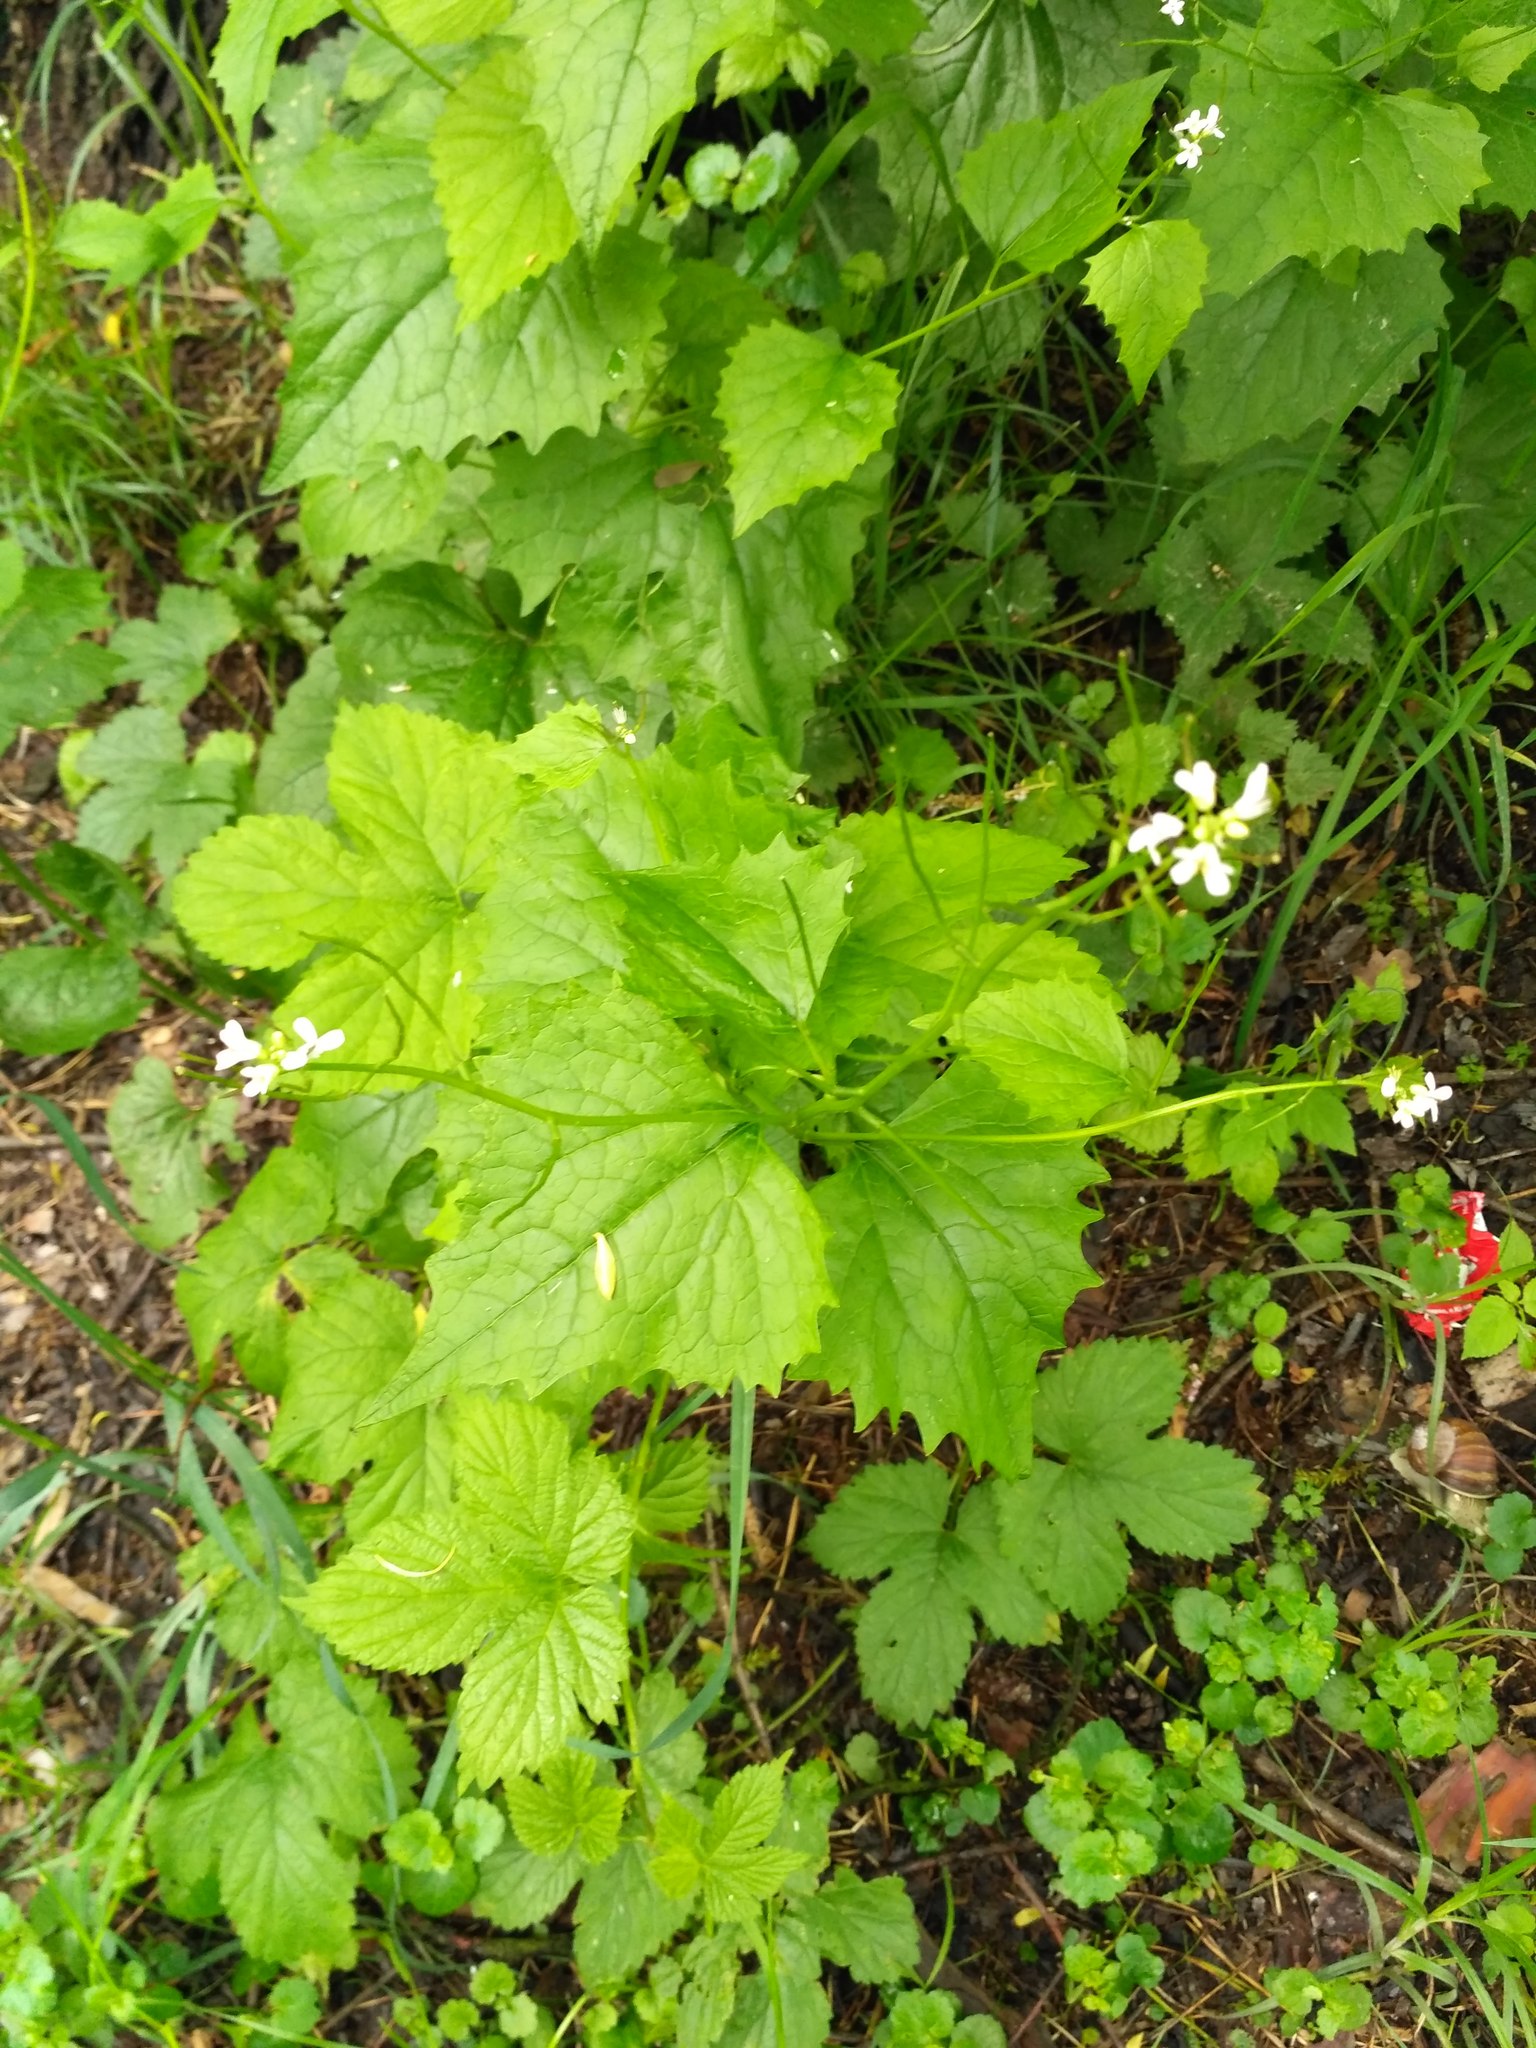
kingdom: Plantae
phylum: Tracheophyta
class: Magnoliopsida
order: Brassicales
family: Brassicaceae
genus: Alliaria
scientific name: Alliaria petiolata
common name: Garlic mustard
